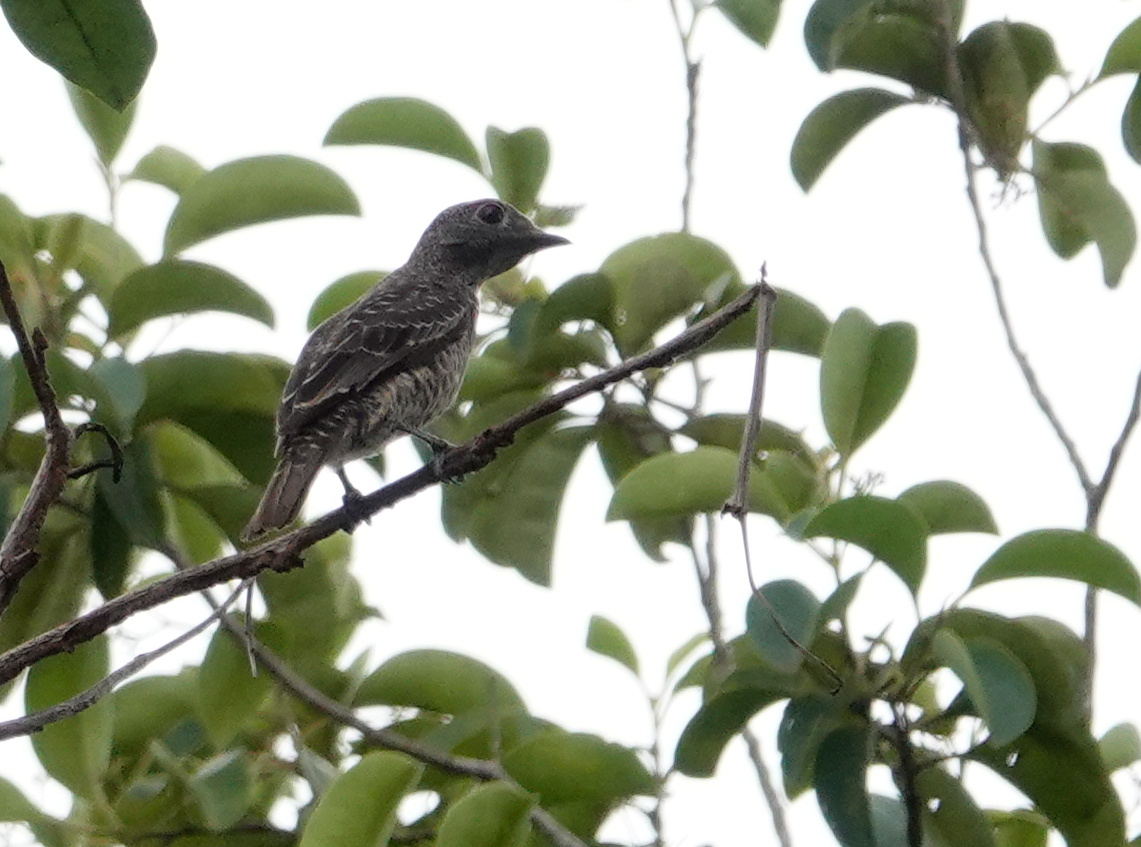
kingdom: Animalia
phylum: Chordata
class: Aves
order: Passeriformes
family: Cotingidae
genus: Cotinga
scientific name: Cotinga cotinga
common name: Purple-breasted cotinga
